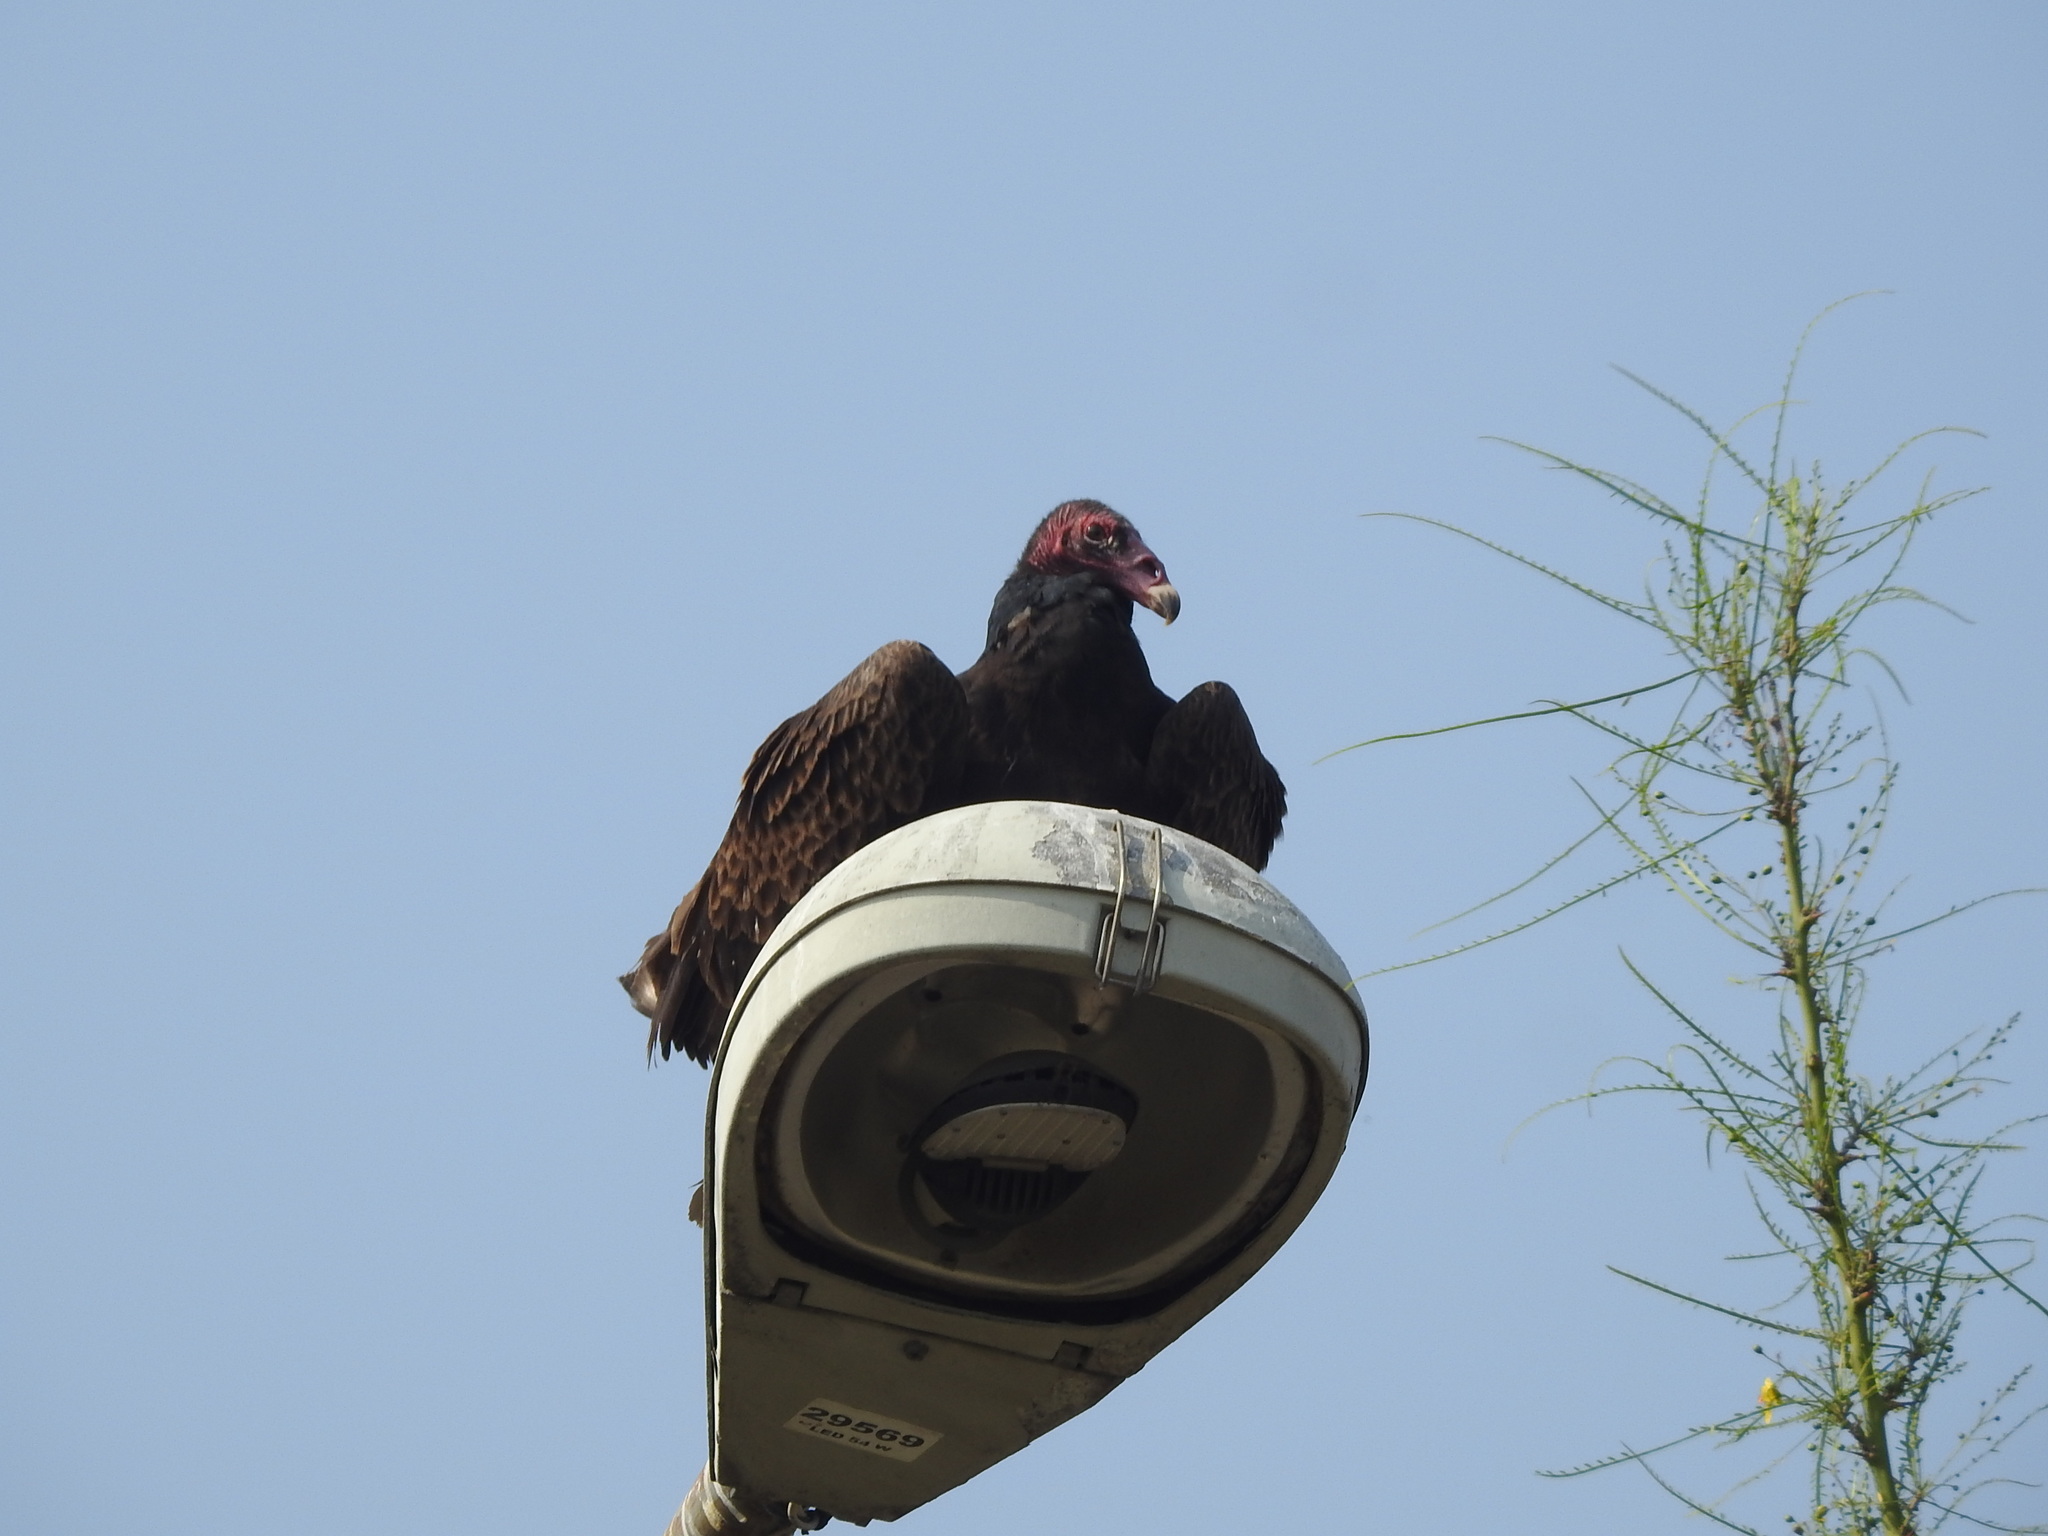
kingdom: Animalia
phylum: Chordata
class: Aves
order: Accipitriformes
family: Cathartidae
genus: Cathartes
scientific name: Cathartes aura
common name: Turkey vulture
